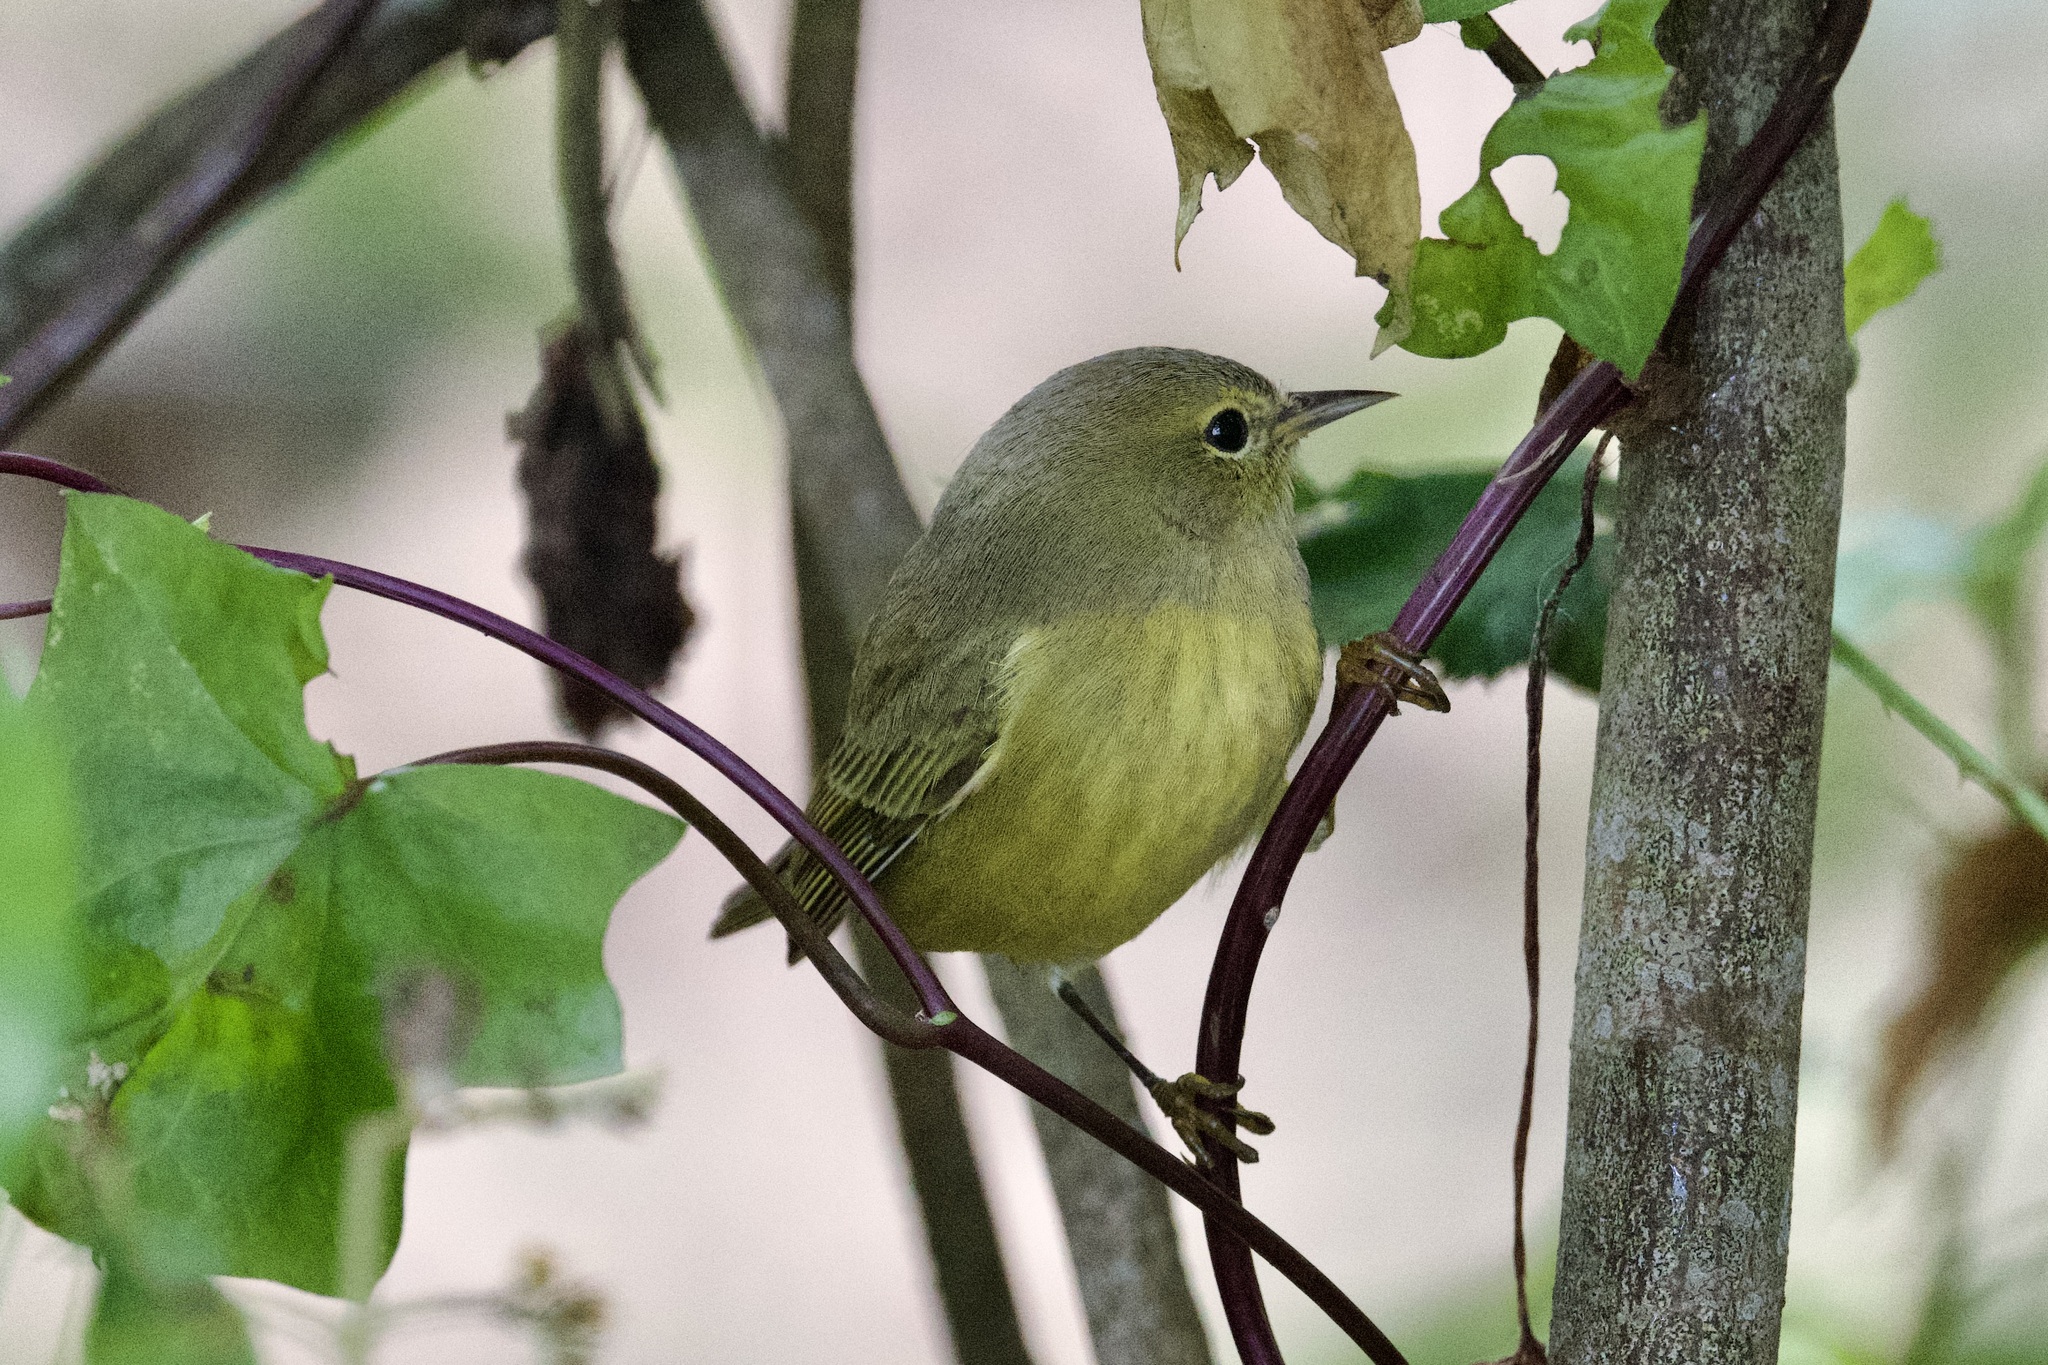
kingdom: Animalia
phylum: Chordata
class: Aves
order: Passeriformes
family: Parulidae
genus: Leiothlypis
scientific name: Leiothlypis celata
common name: Orange-crowned warbler
